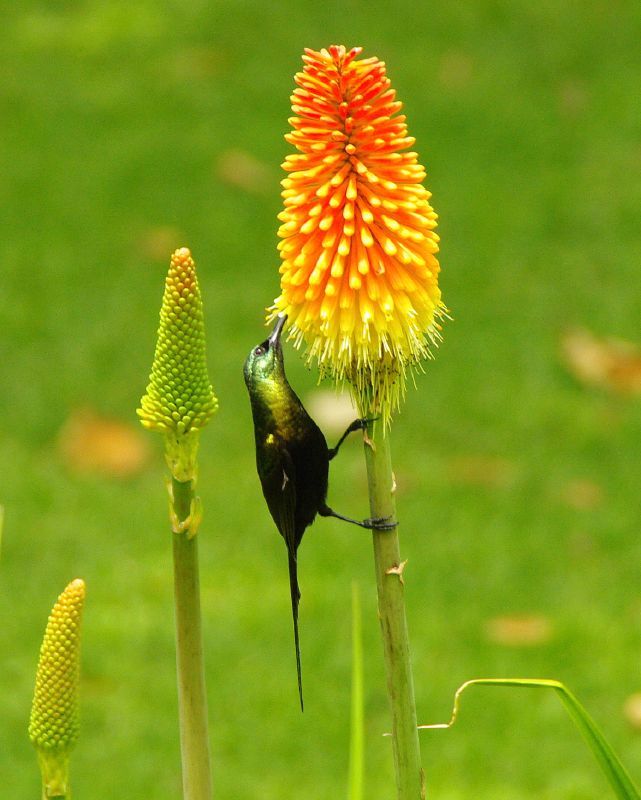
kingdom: Animalia
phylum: Chordata
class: Aves
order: Passeriformes
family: Nectariniidae
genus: Nectarinia
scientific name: Nectarinia kilimensis
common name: Bronzy sunbird
